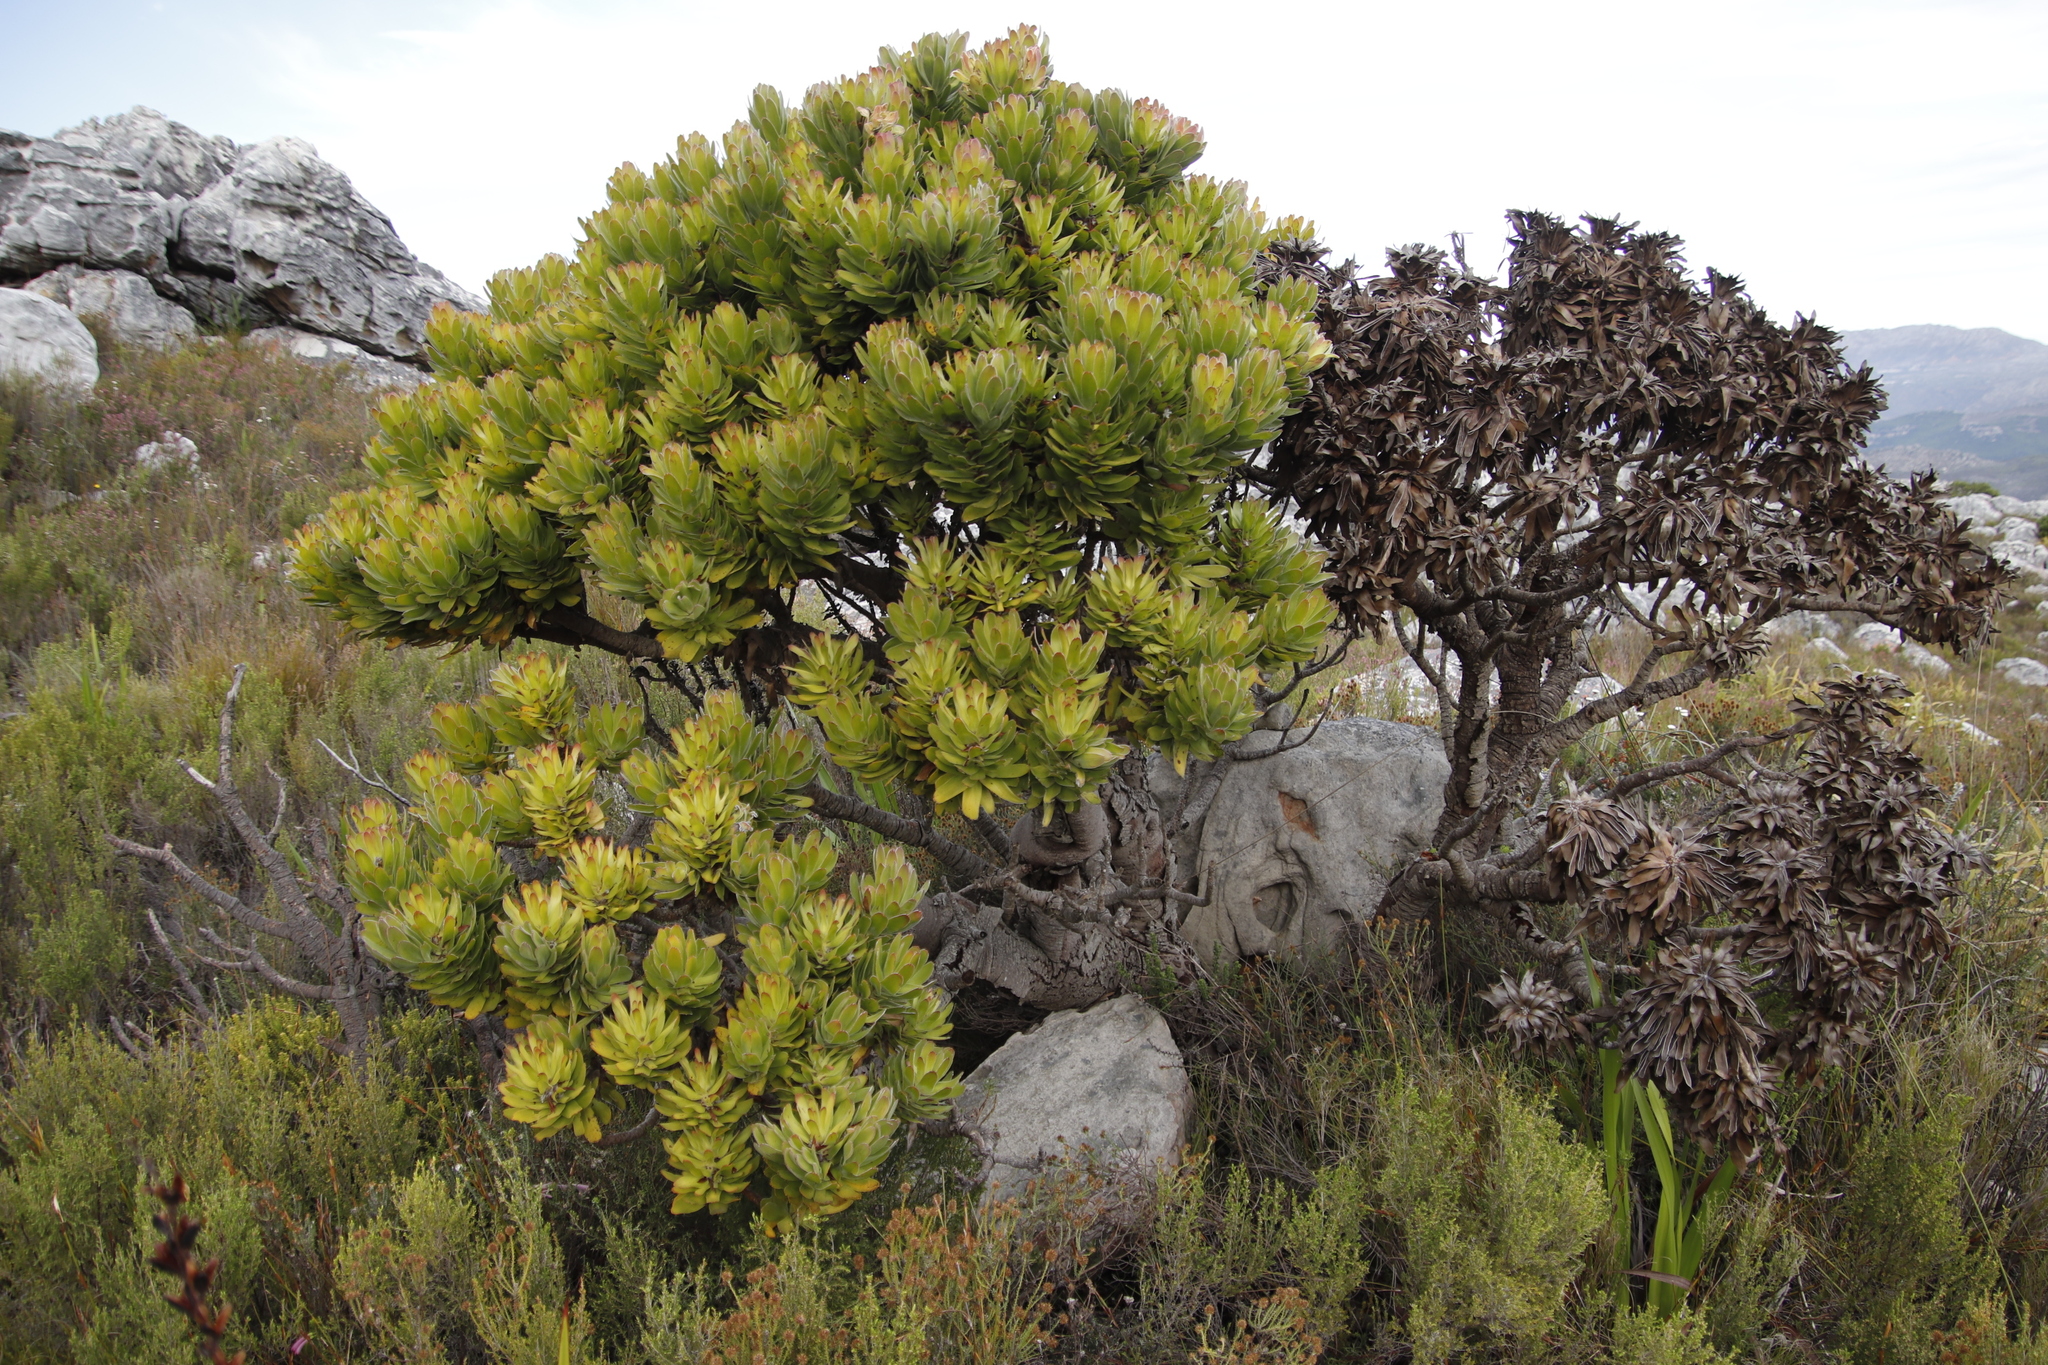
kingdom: Plantae
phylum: Tracheophyta
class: Magnoliopsida
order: Proteales
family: Proteaceae
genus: Mimetes
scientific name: Mimetes fimbriifolius
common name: Fringed bottlebrush
